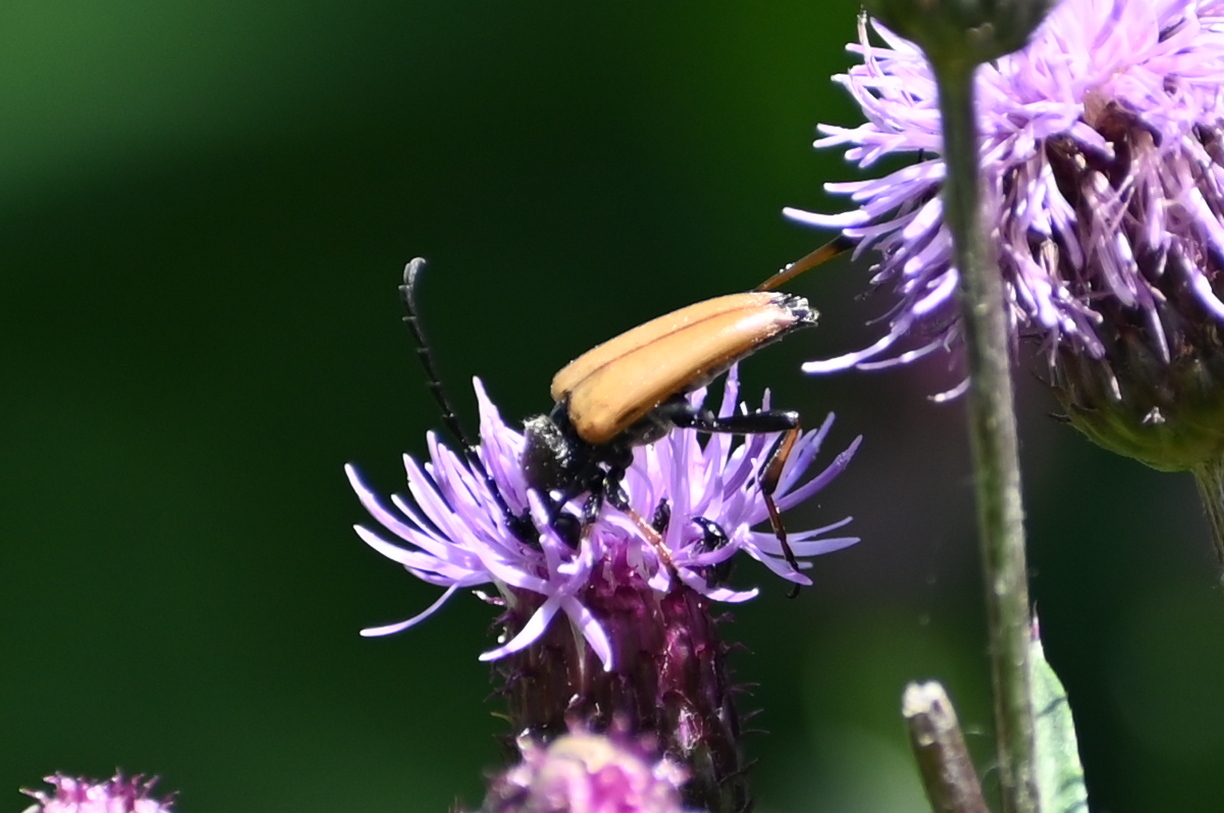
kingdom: Animalia
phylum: Arthropoda
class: Insecta
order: Coleoptera
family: Cerambycidae
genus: Stictoleptura
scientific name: Stictoleptura rubra
